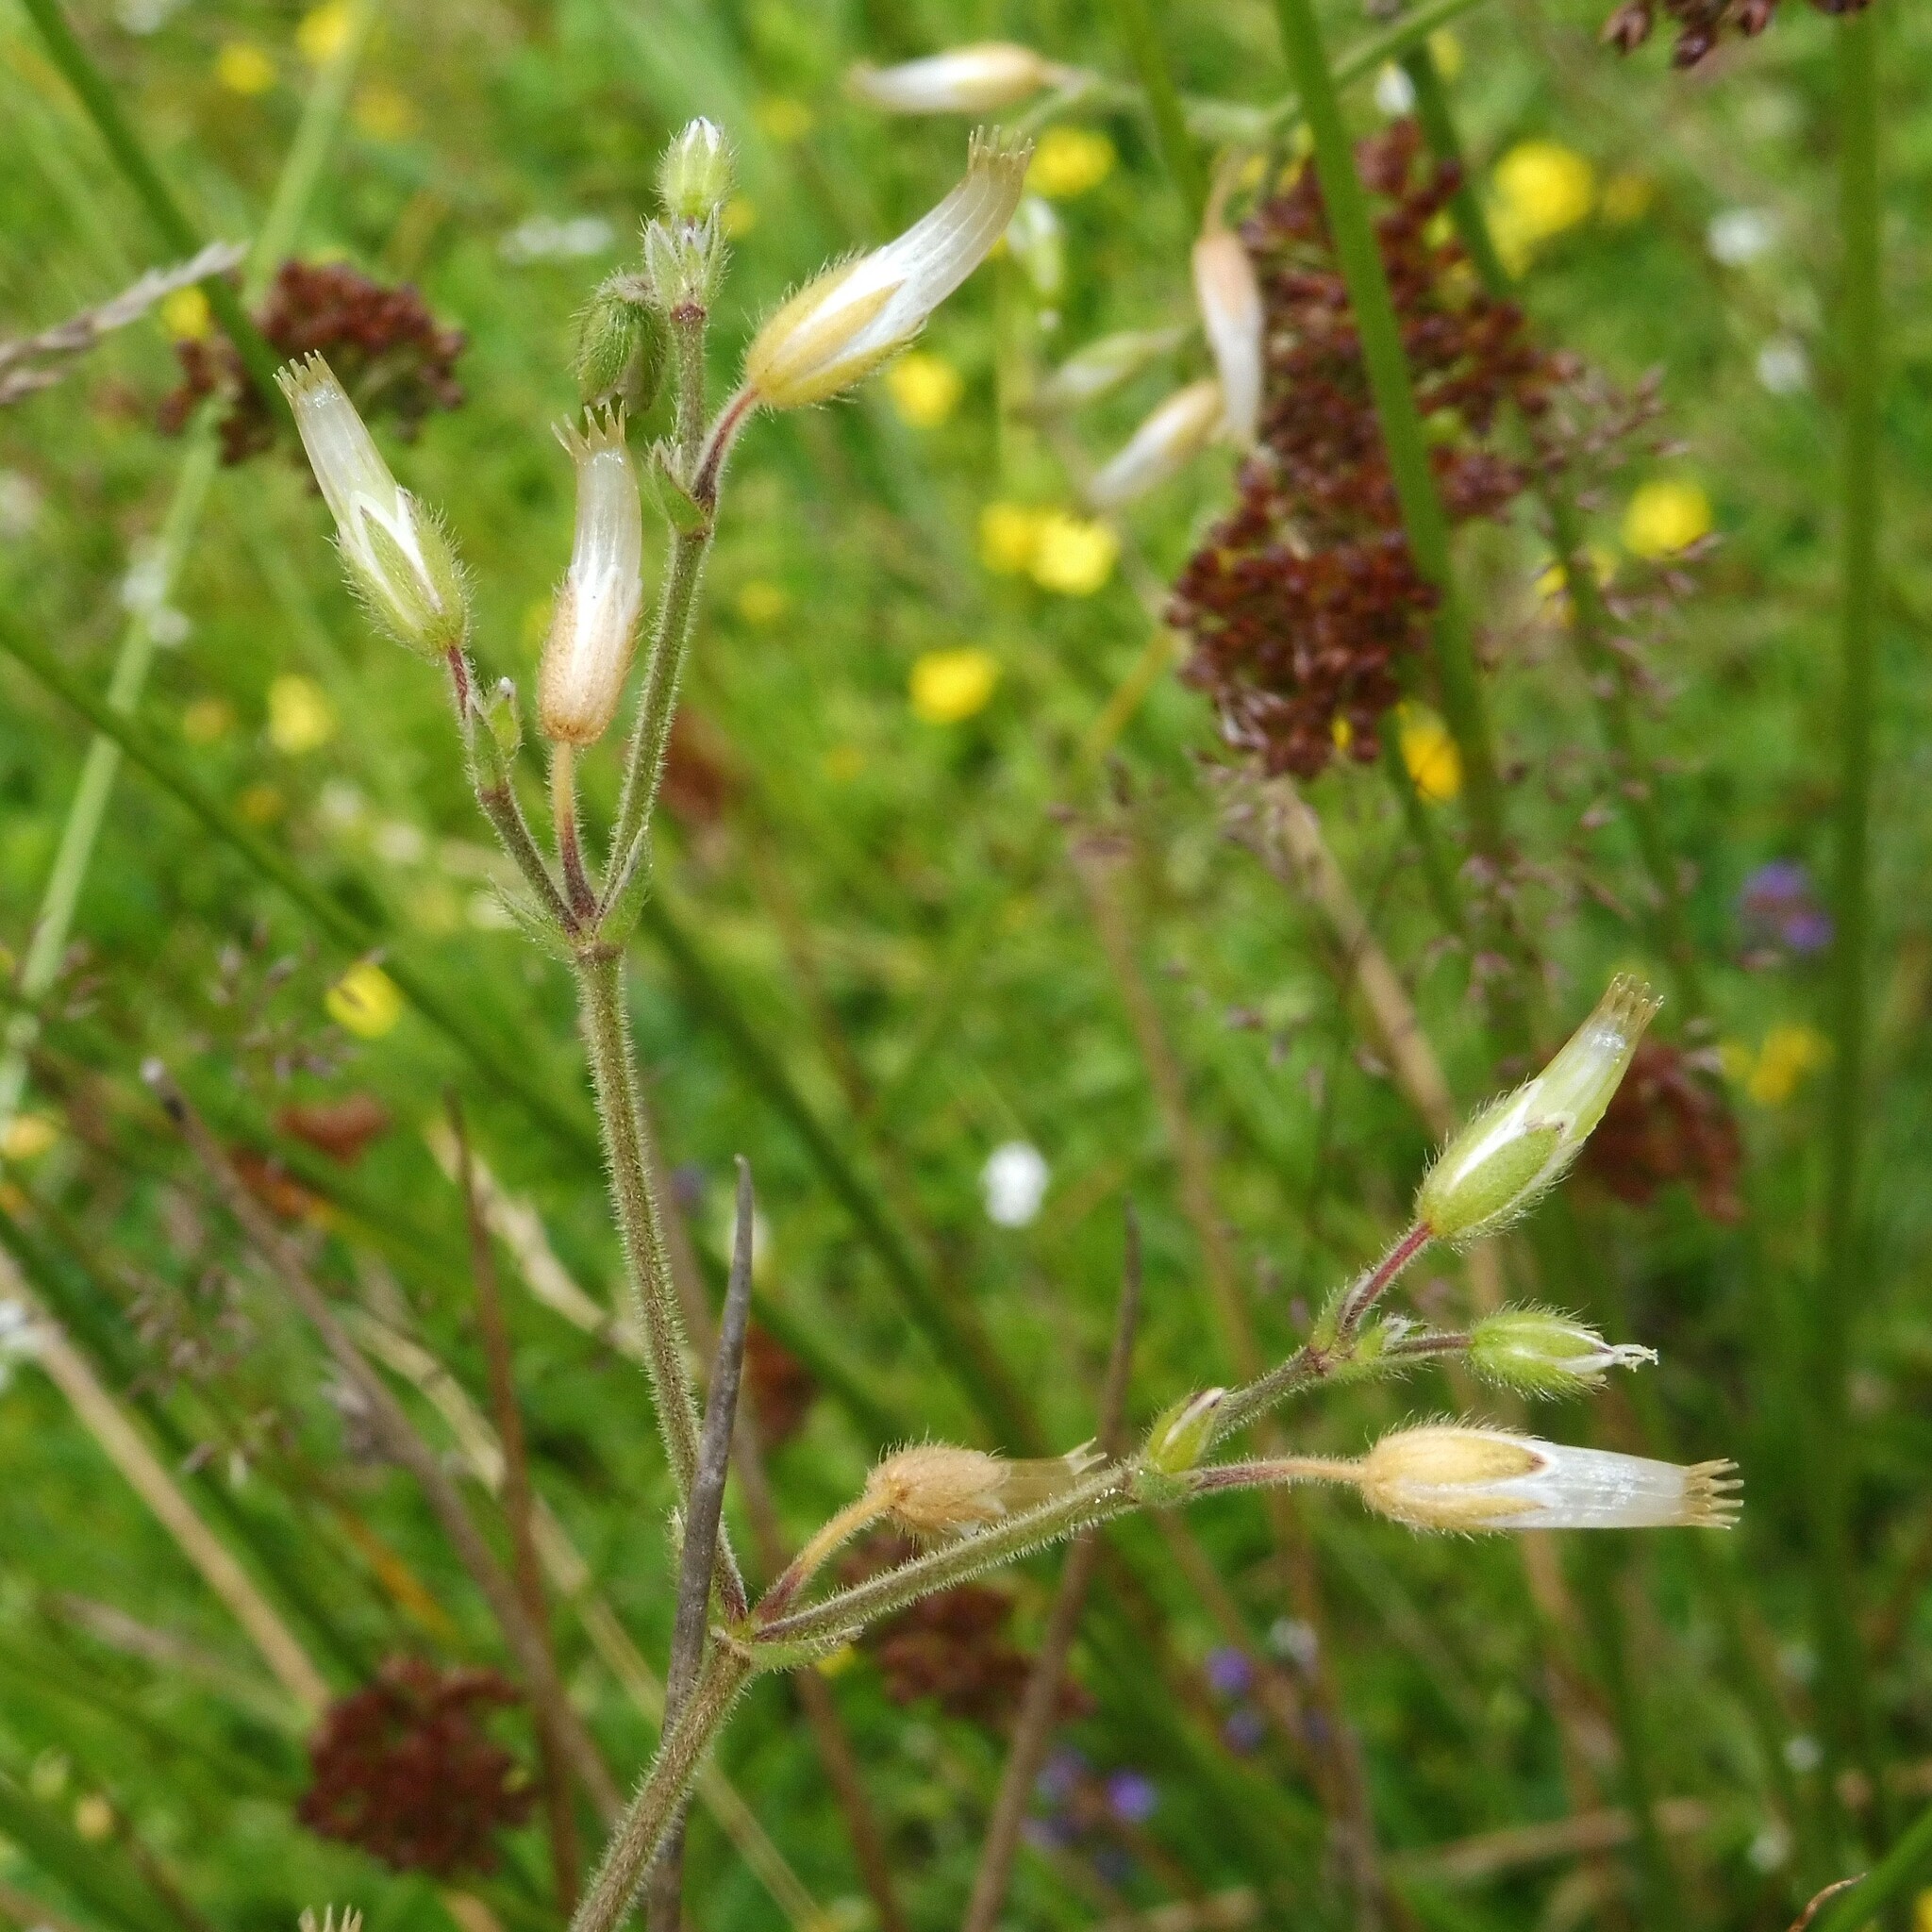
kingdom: Plantae
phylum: Tracheophyta
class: Magnoliopsida
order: Caryophyllales
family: Caryophyllaceae
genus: Cerastium
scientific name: Cerastium fontanum
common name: Common mouse-ear
